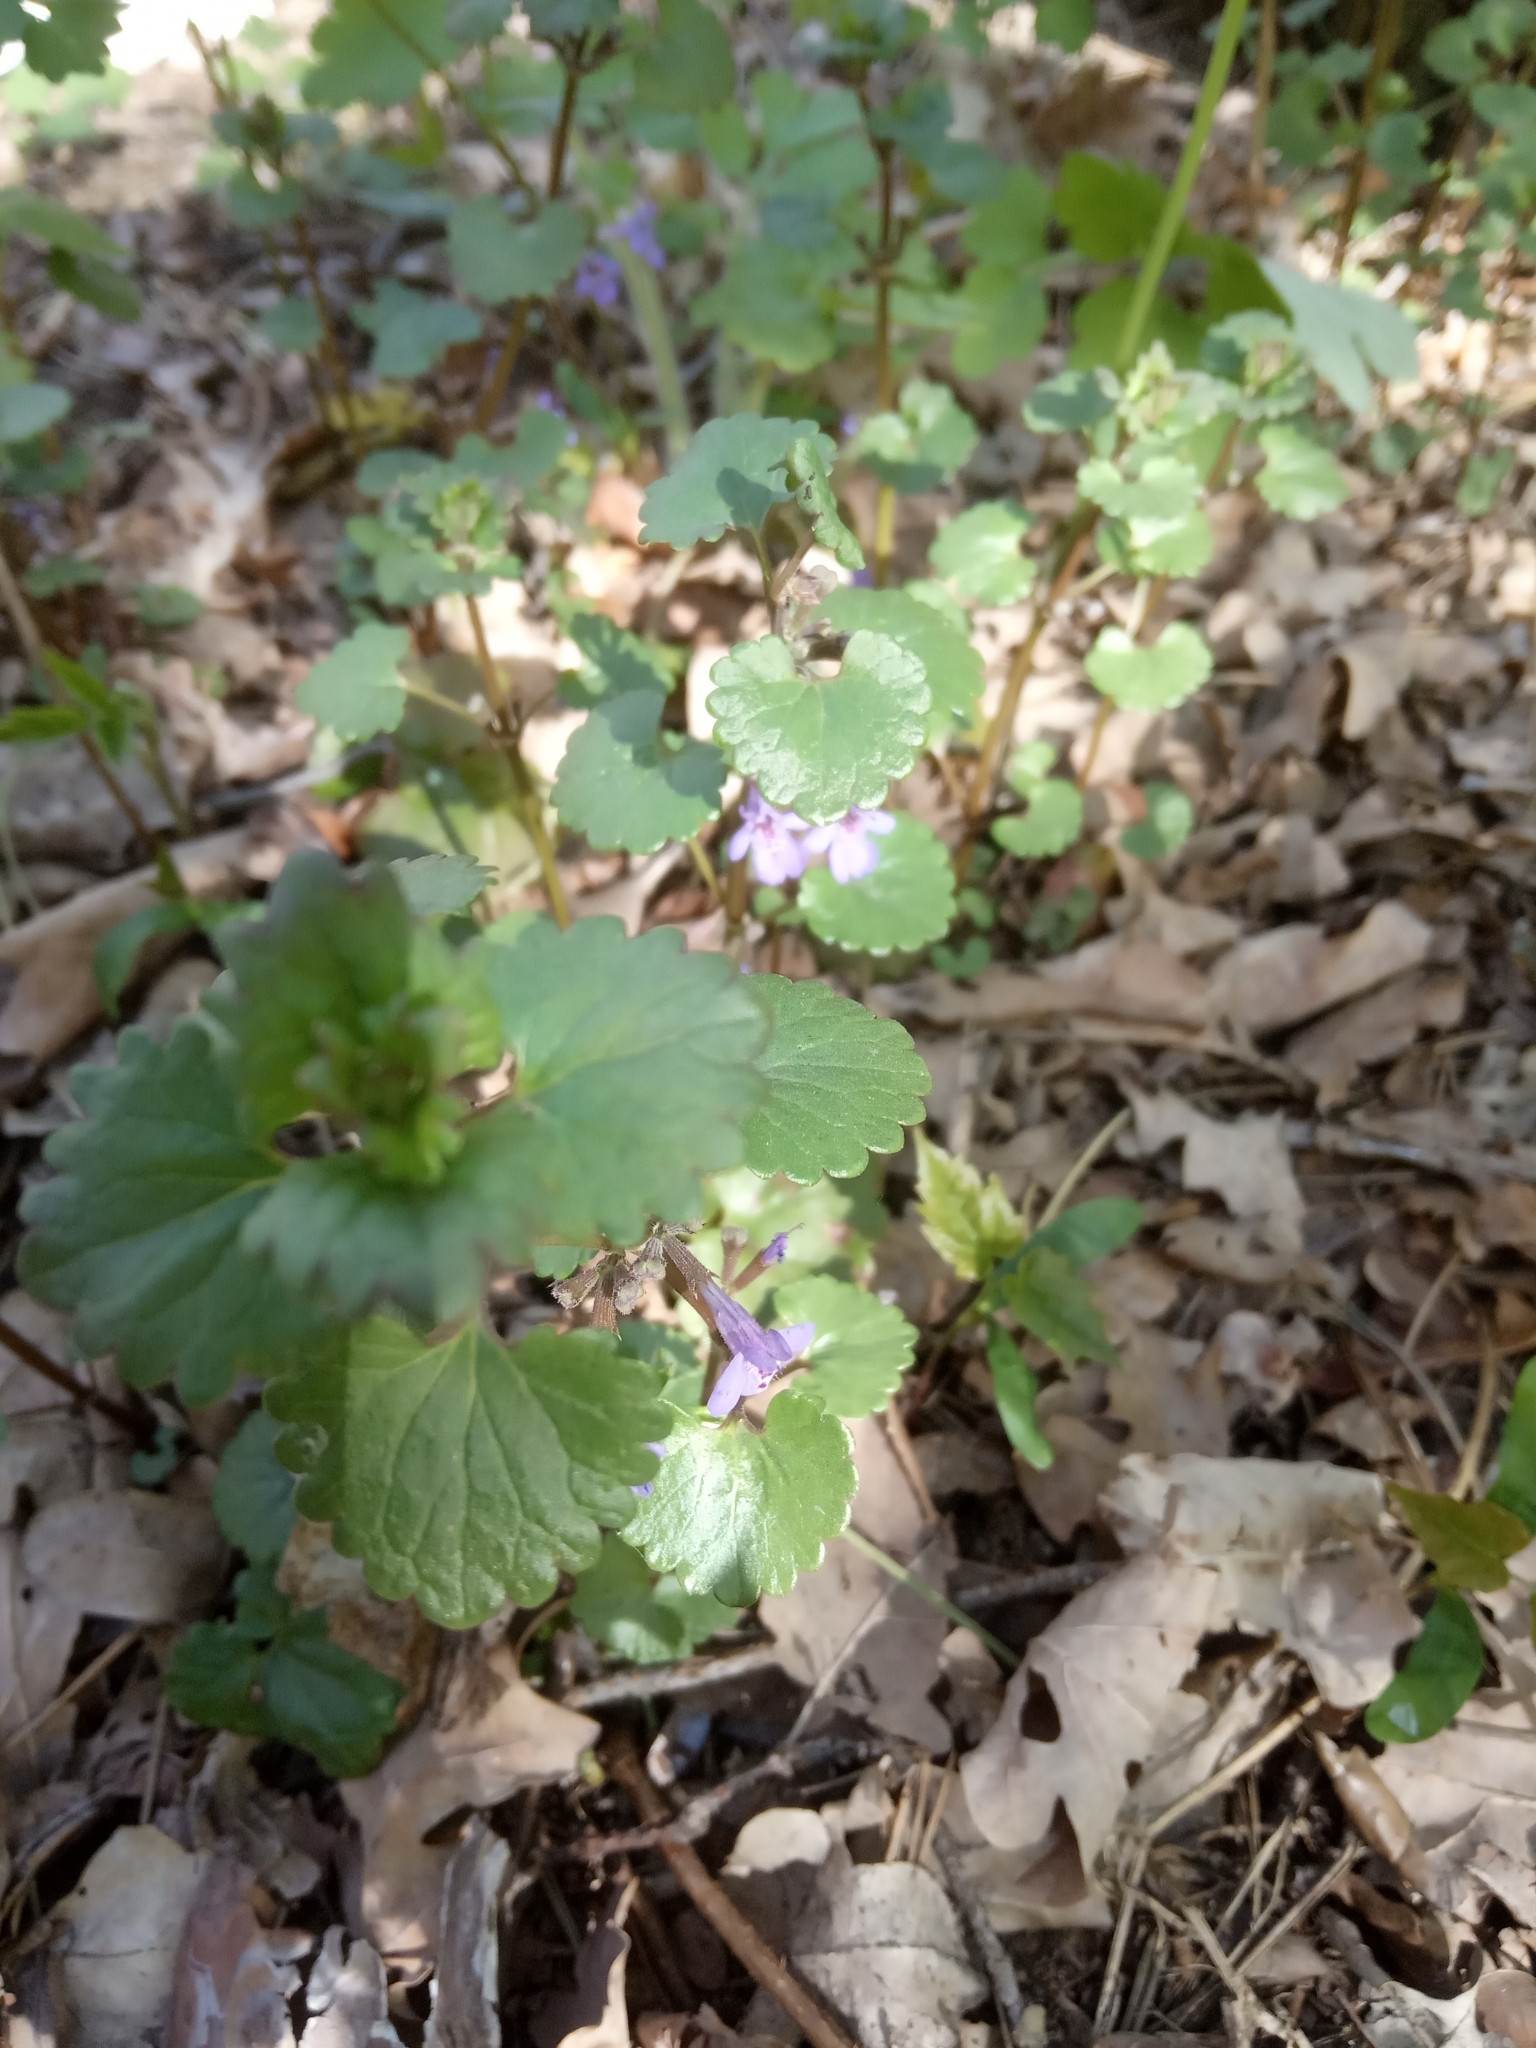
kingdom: Plantae
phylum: Tracheophyta
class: Magnoliopsida
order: Lamiales
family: Lamiaceae
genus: Glechoma
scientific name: Glechoma hederacea
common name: Ground ivy
